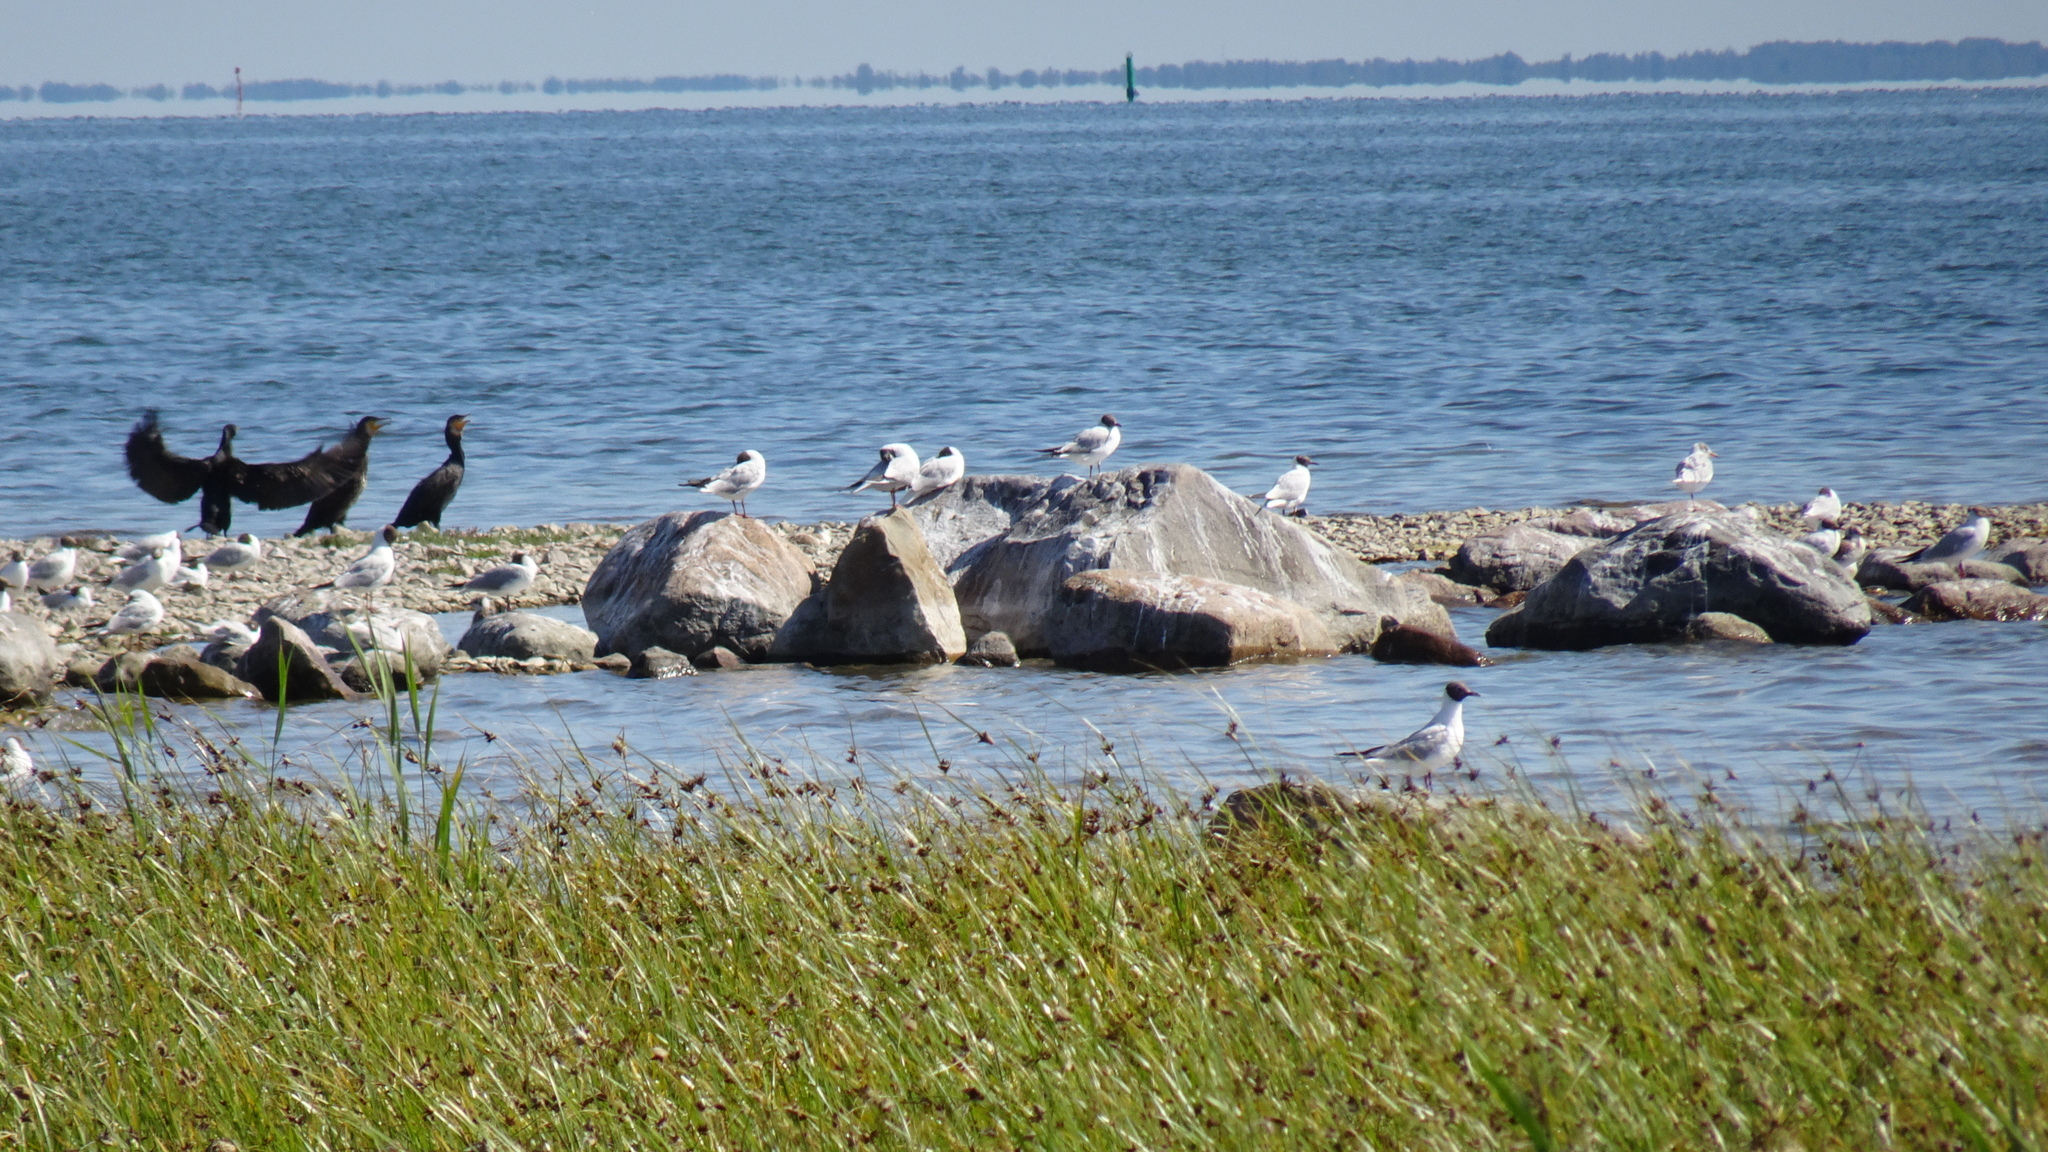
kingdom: Animalia
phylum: Chordata
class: Aves
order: Charadriiformes
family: Laridae
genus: Chroicocephalus
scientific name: Chroicocephalus ridibundus
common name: Black-headed gull
